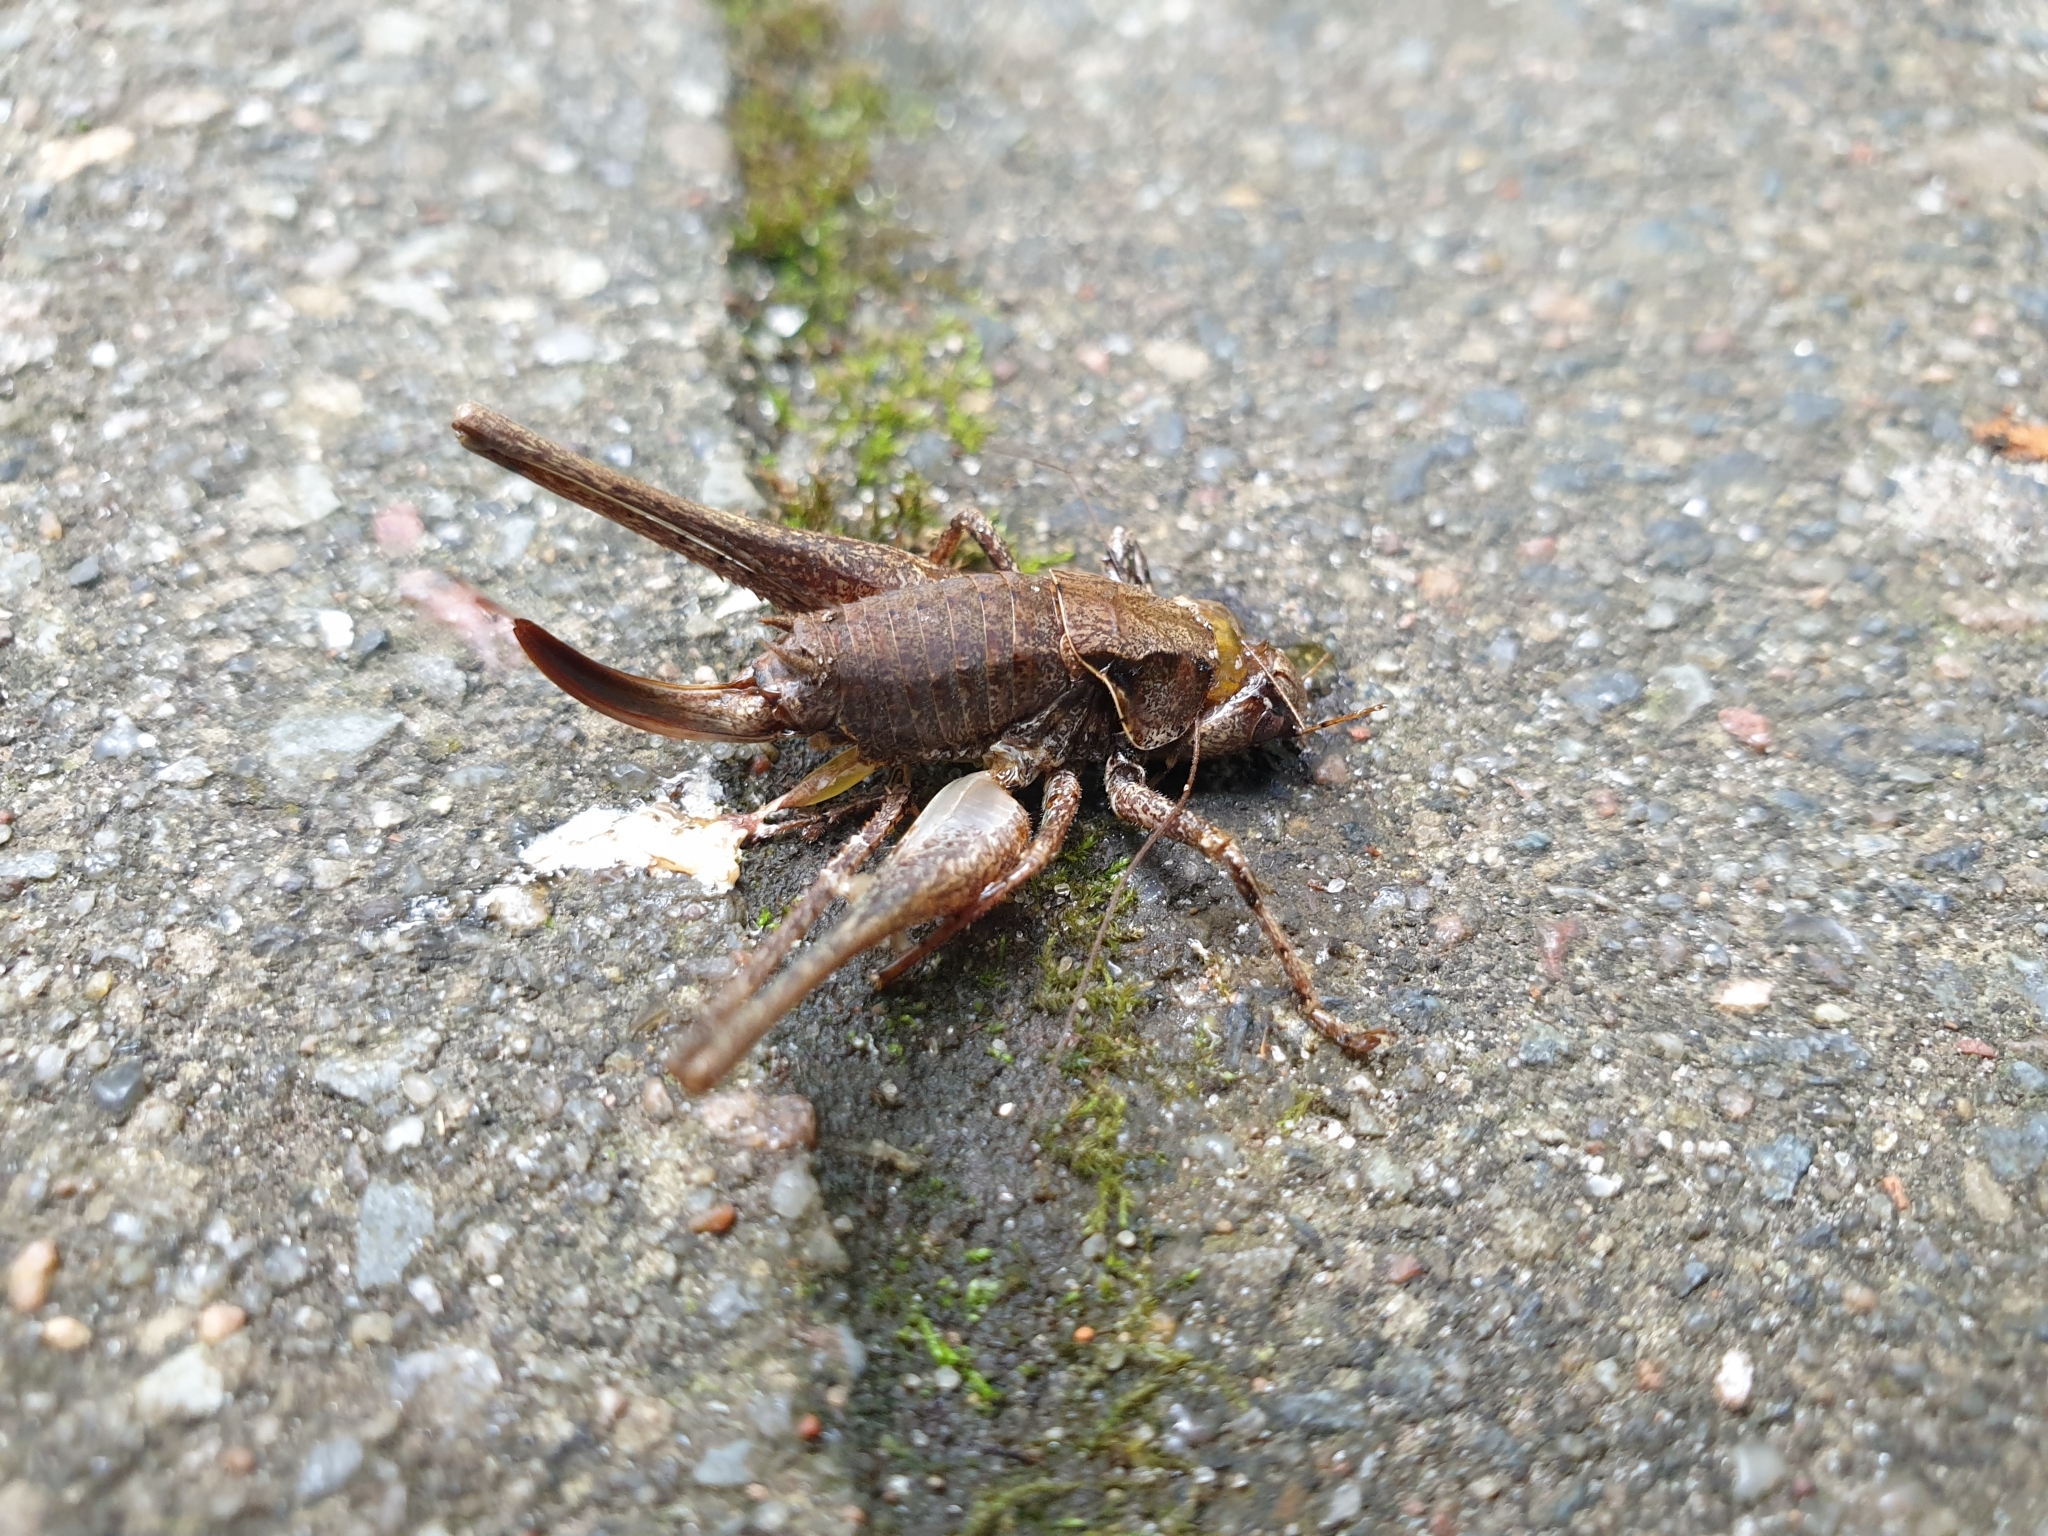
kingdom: Animalia
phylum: Arthropoda
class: Insecta
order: Orthoptera
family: Tettigoniidae
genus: Pholidoptera
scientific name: Pholidoptera griseoaptera
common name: Dark bush-cricket
